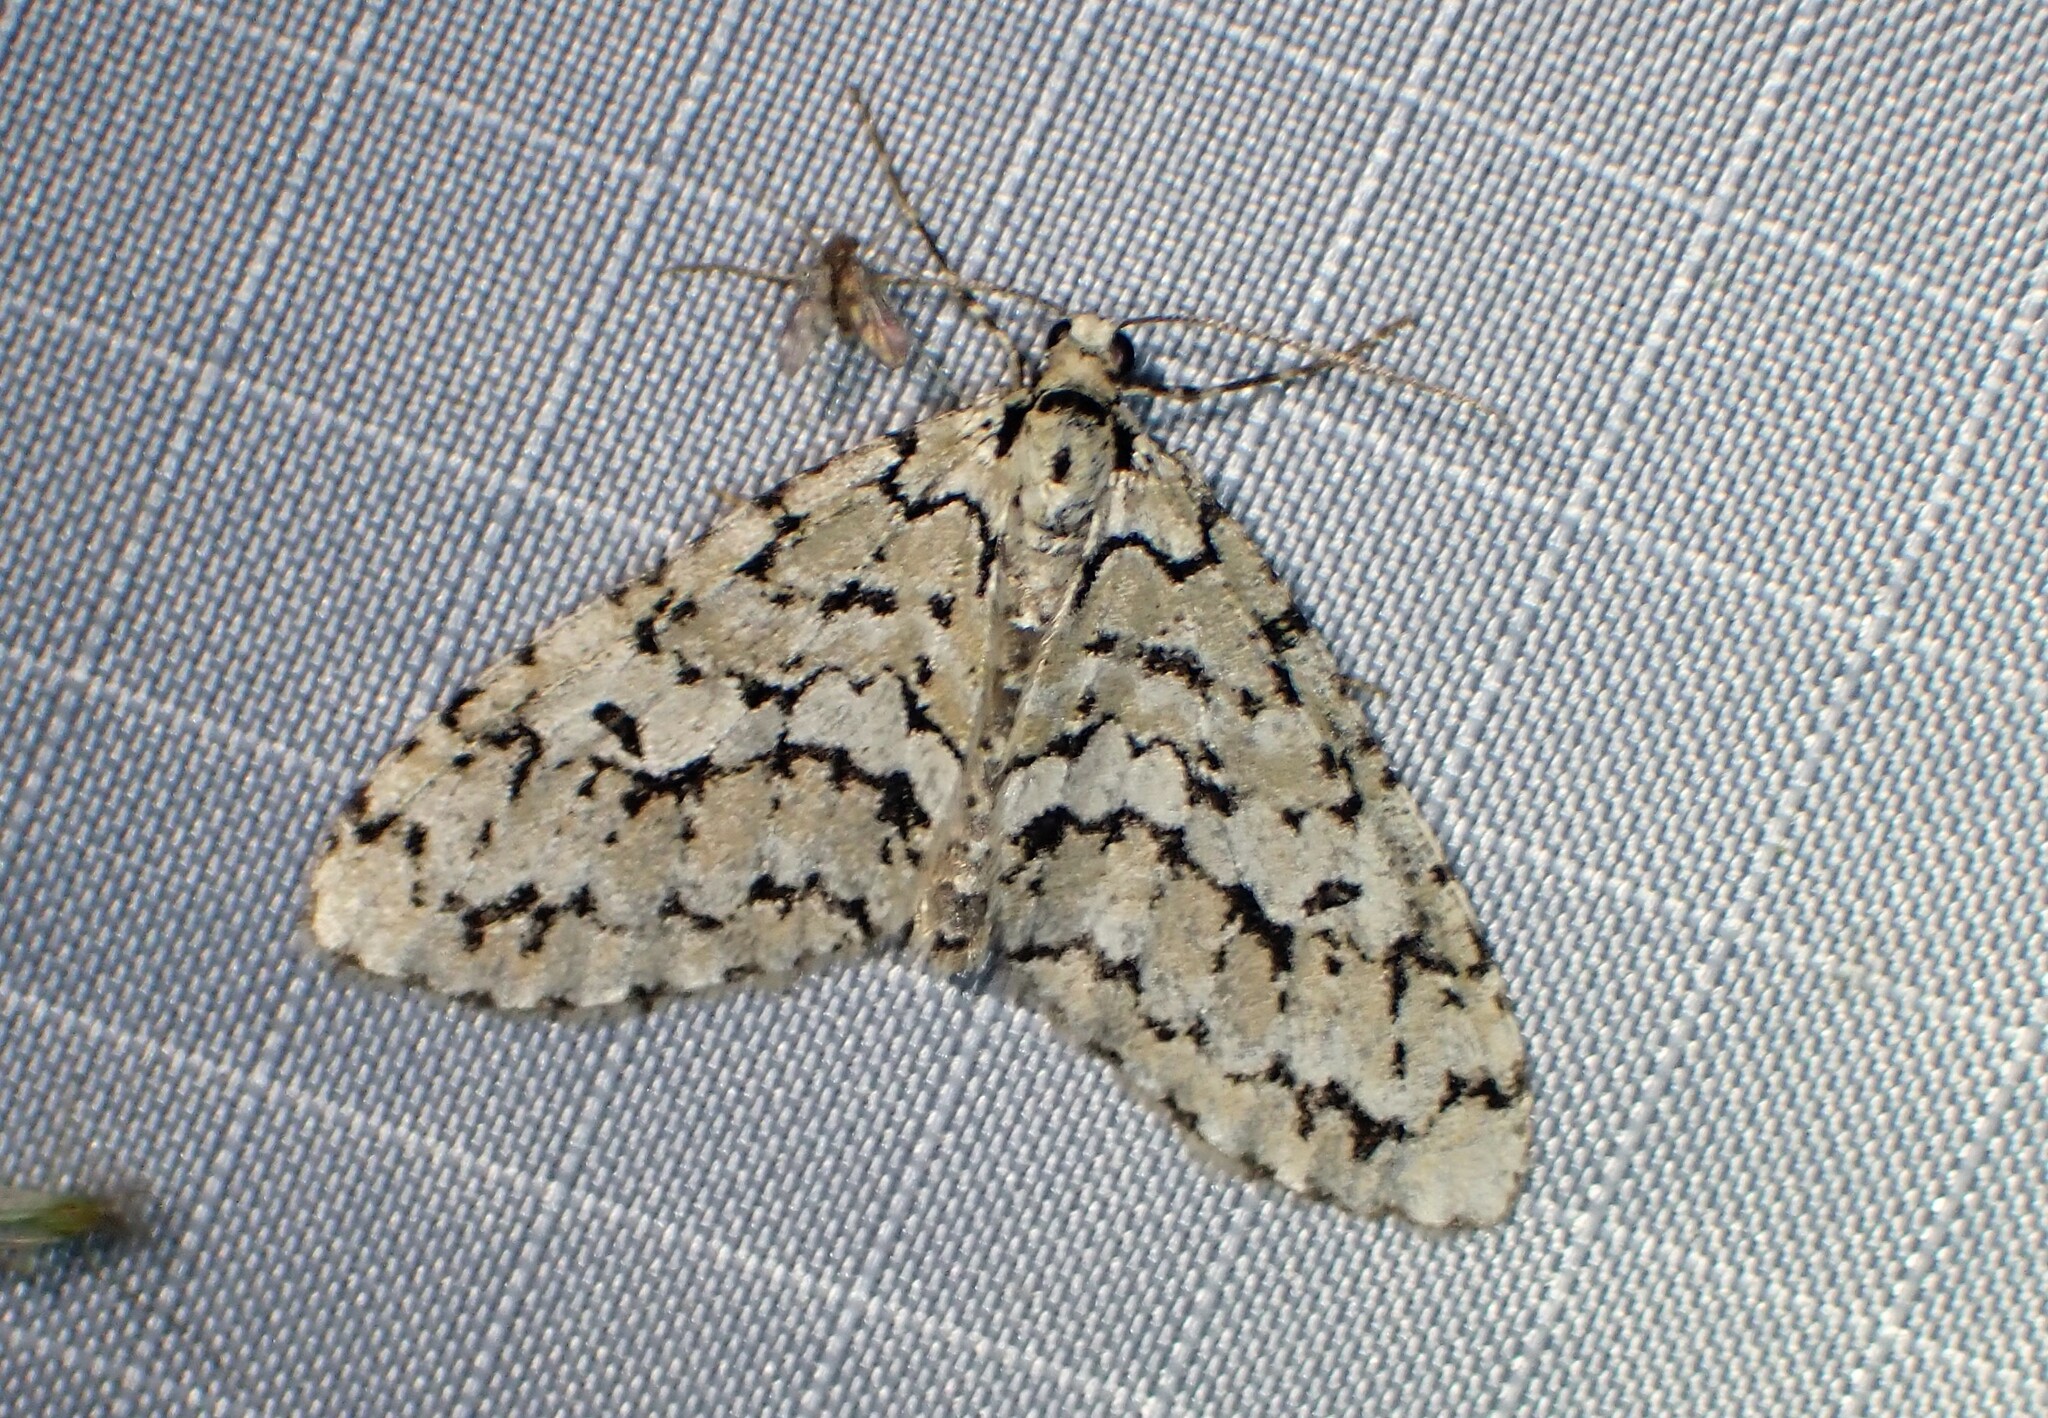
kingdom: Animalia
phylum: Arthropoda
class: Insecta
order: Lepidoptera
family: Geometridae
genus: Cladara
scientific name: Cladara atroliturata
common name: Scribbler
